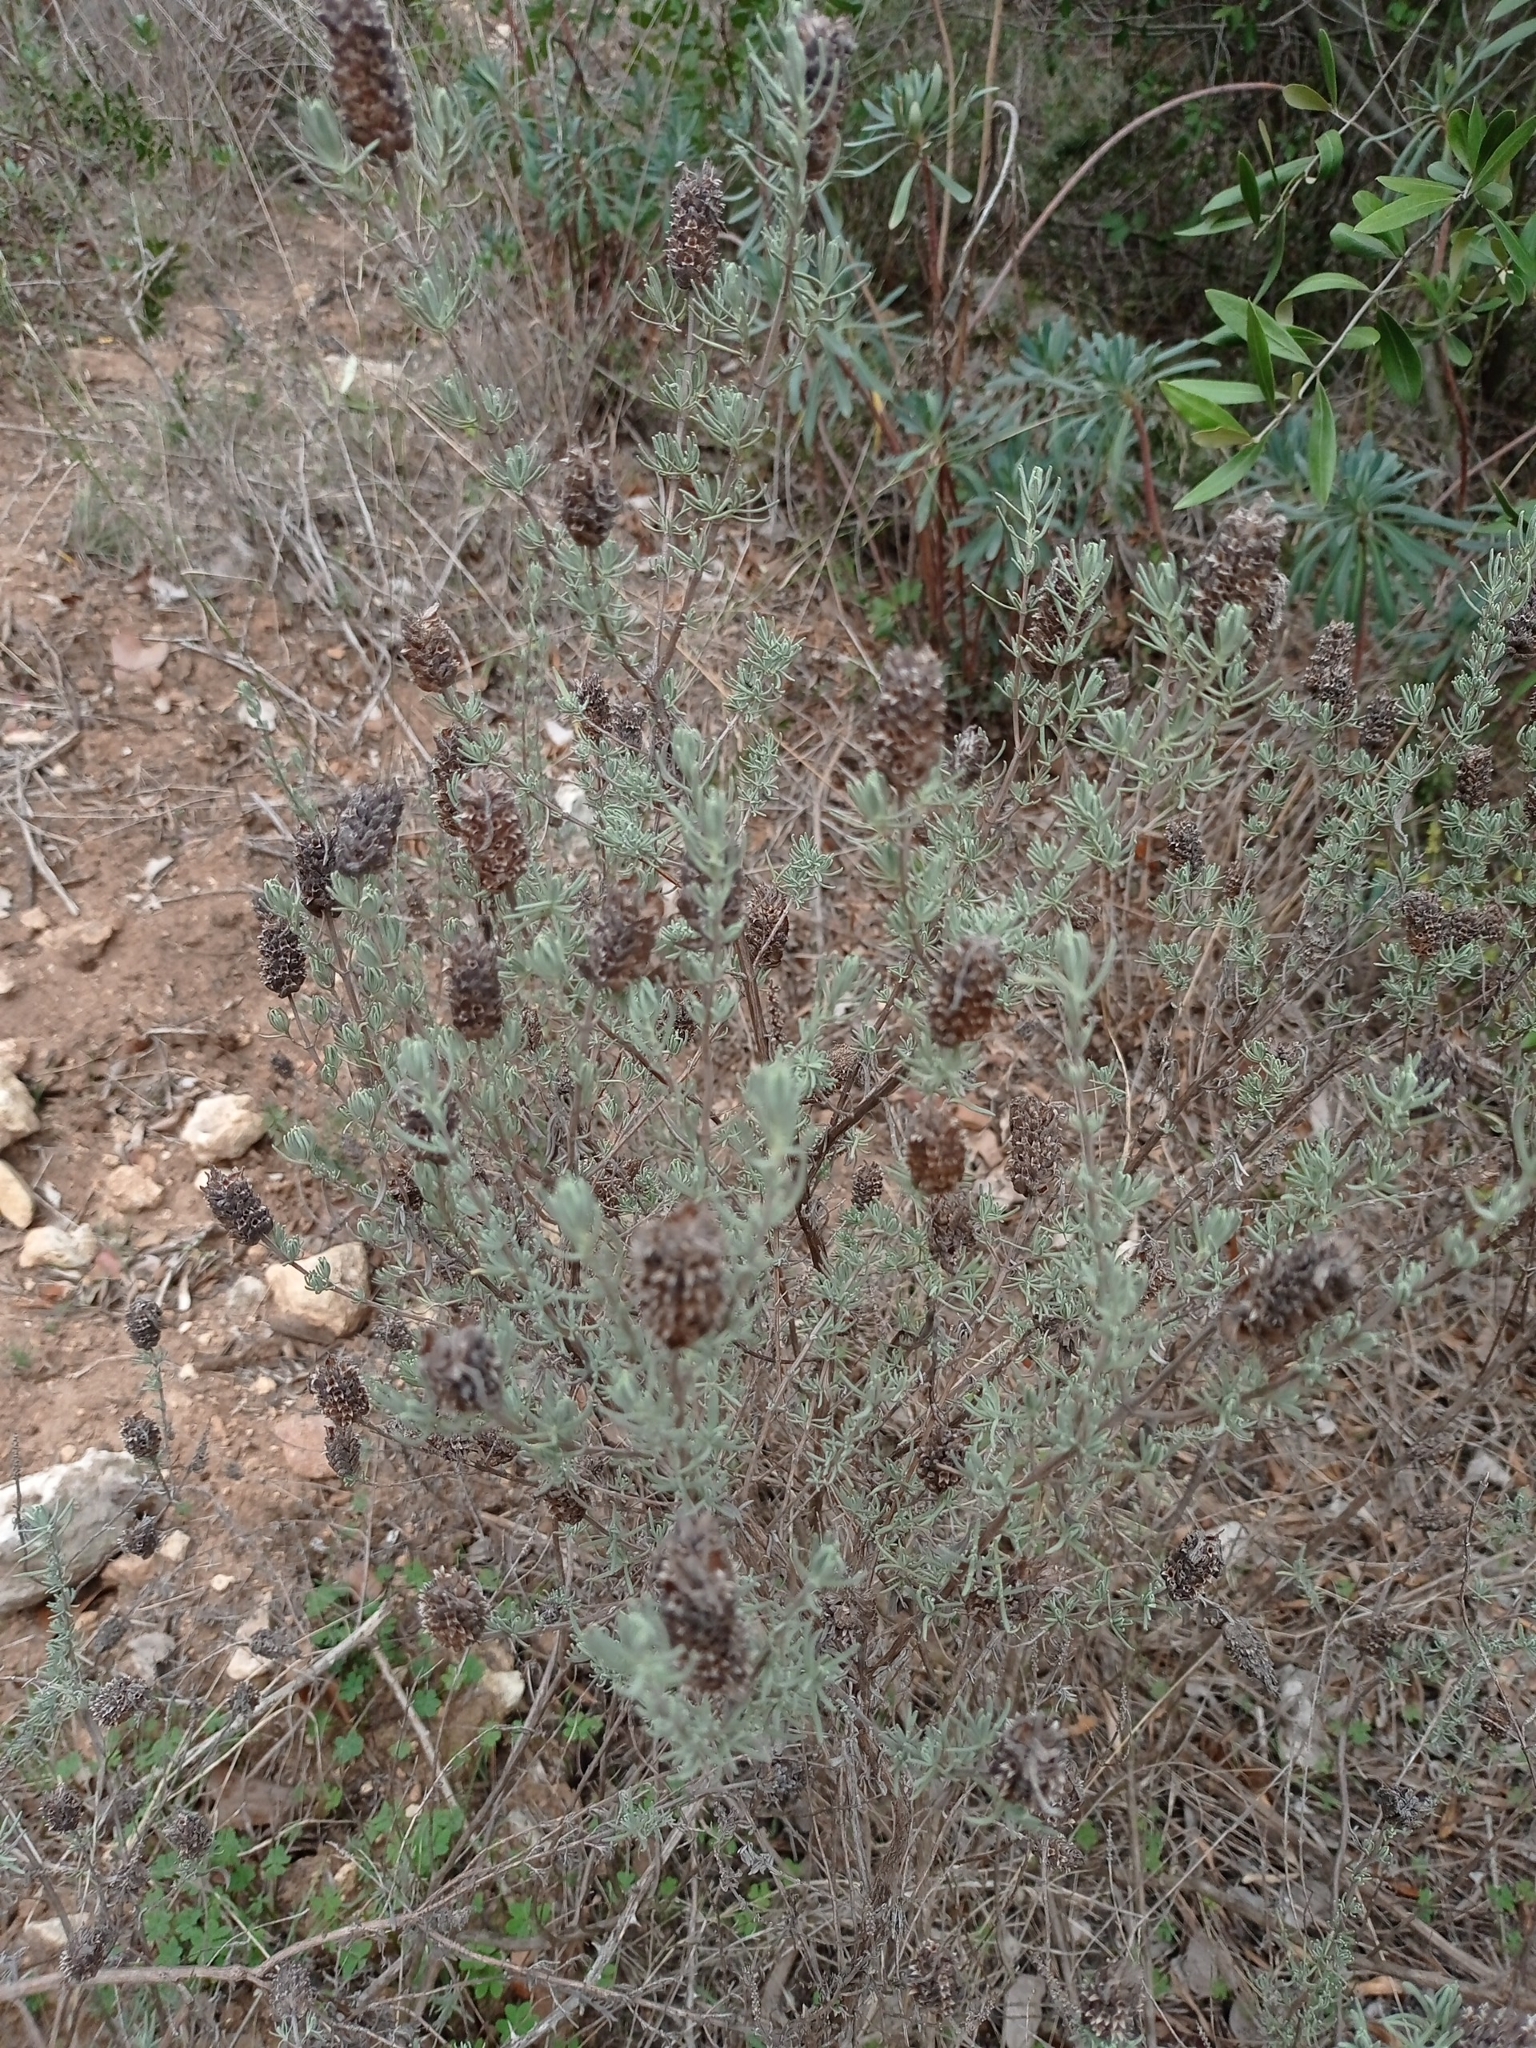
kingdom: Plantae
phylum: Tracheophyta
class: Magnoliopsida
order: Lamiales
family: Lamiaceae
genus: Lavandula
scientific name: Lavandula stoechas
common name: French lavender
